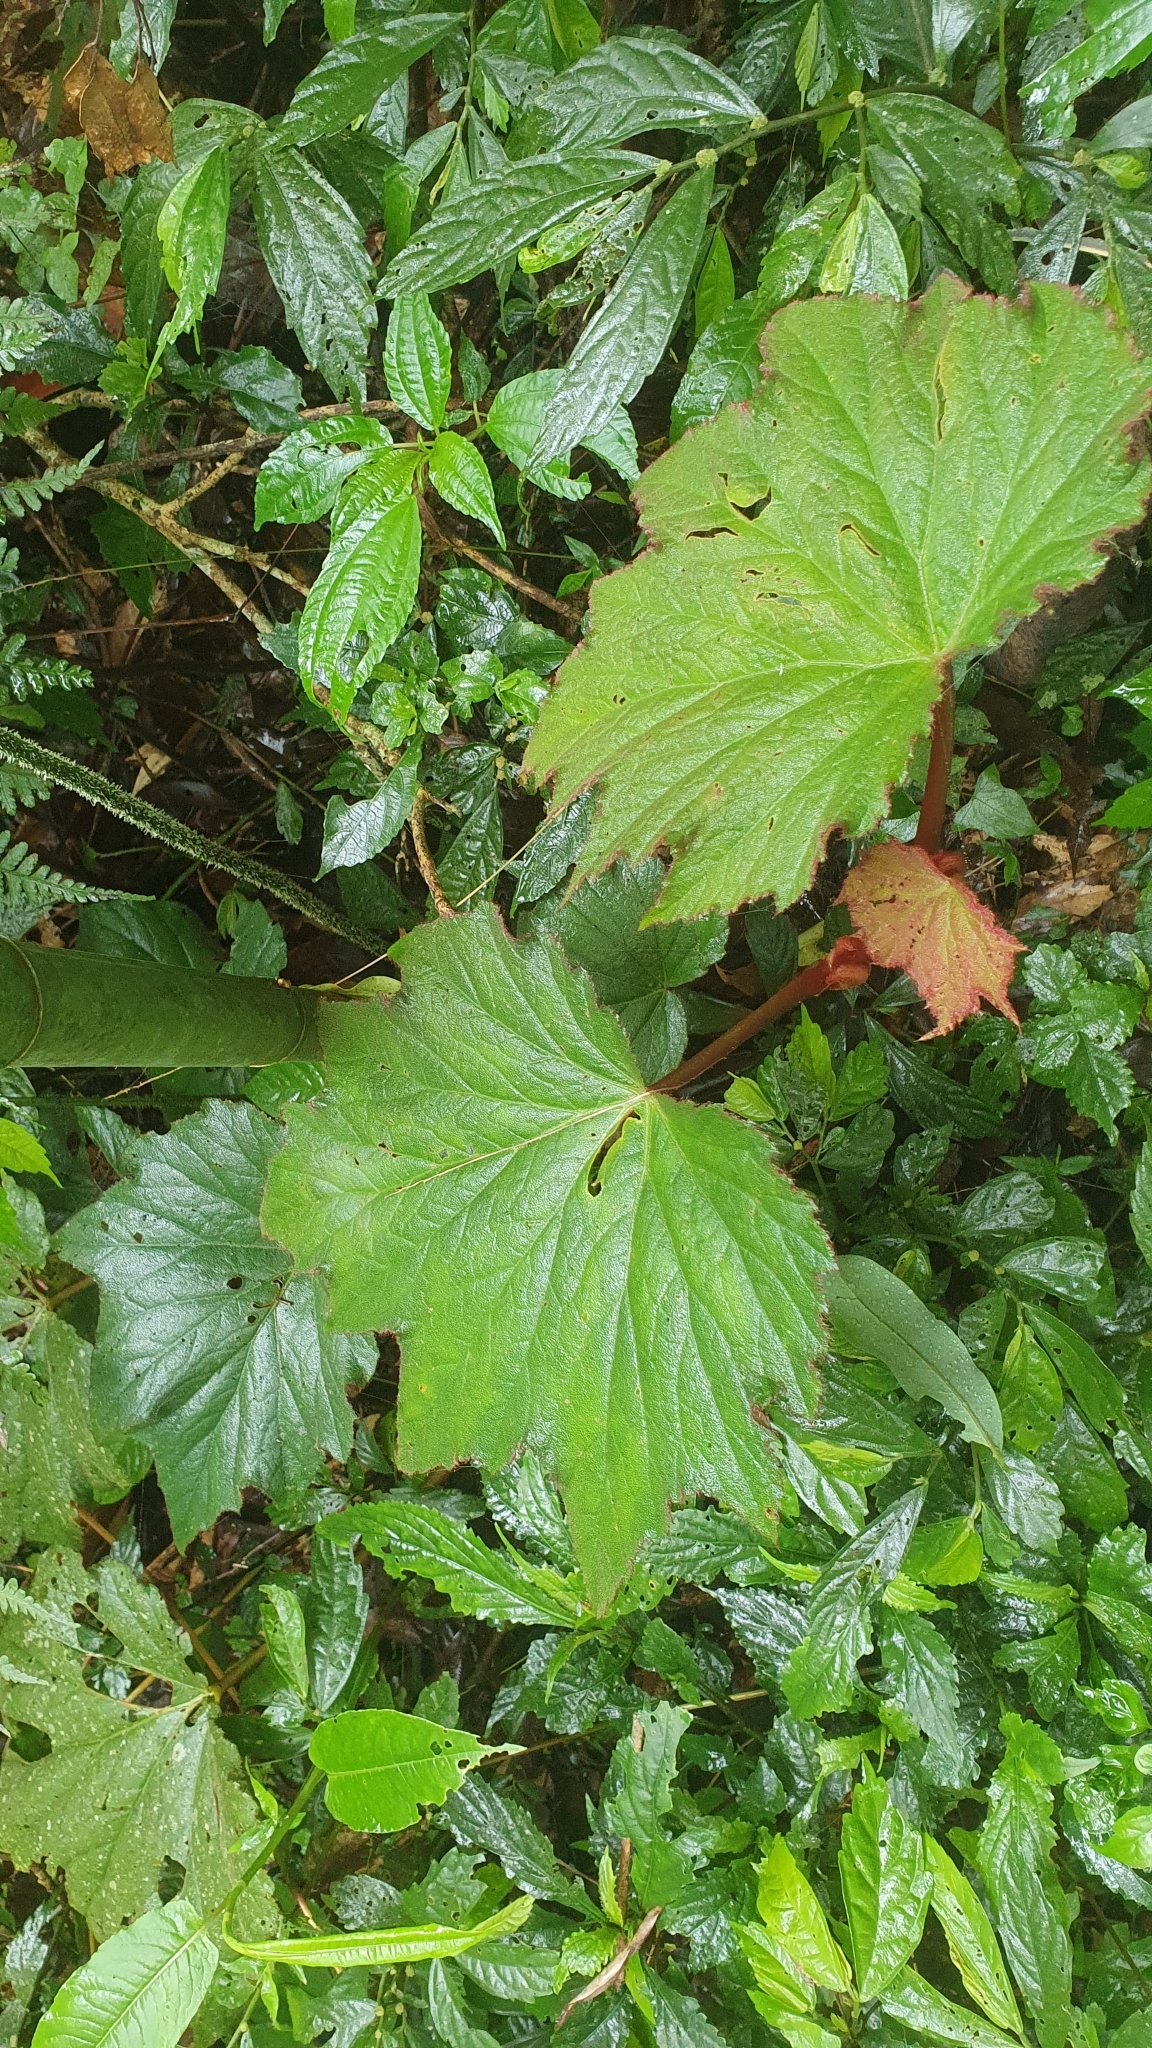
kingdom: Plantae
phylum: Tracheophyta
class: Magnoliopsida
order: Cucurbitales
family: Begoniaceae
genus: Begonia
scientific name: Begonia palmata
